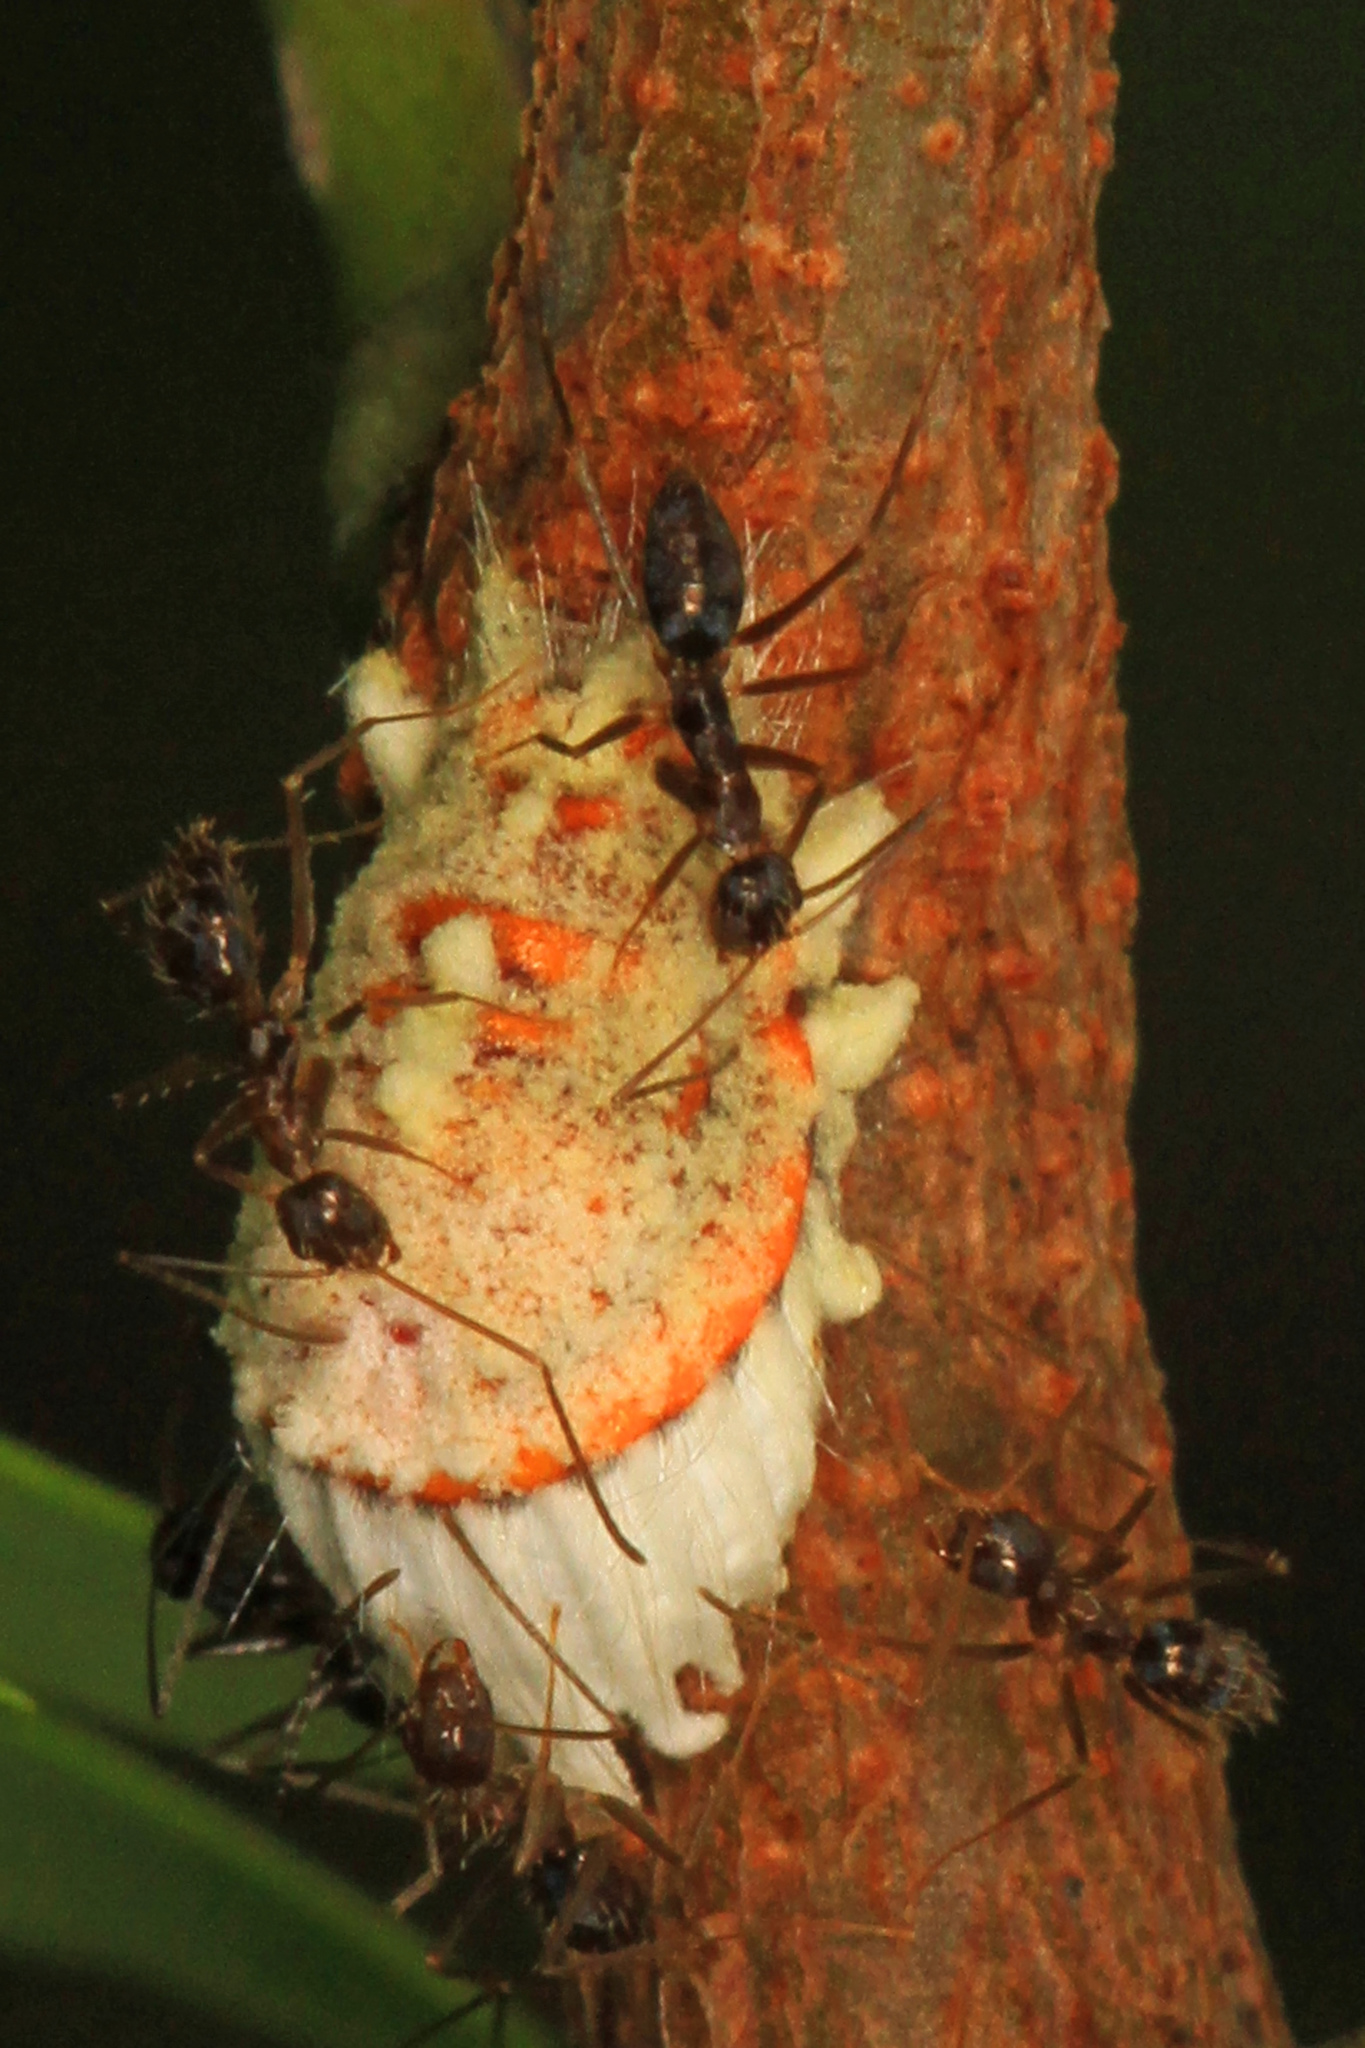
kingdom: Animalia
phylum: Arthropoda
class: Insecta
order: Hemiptera
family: Margarodidae
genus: Icerya
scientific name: Icerya purchasi
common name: Cottony cushion scale
